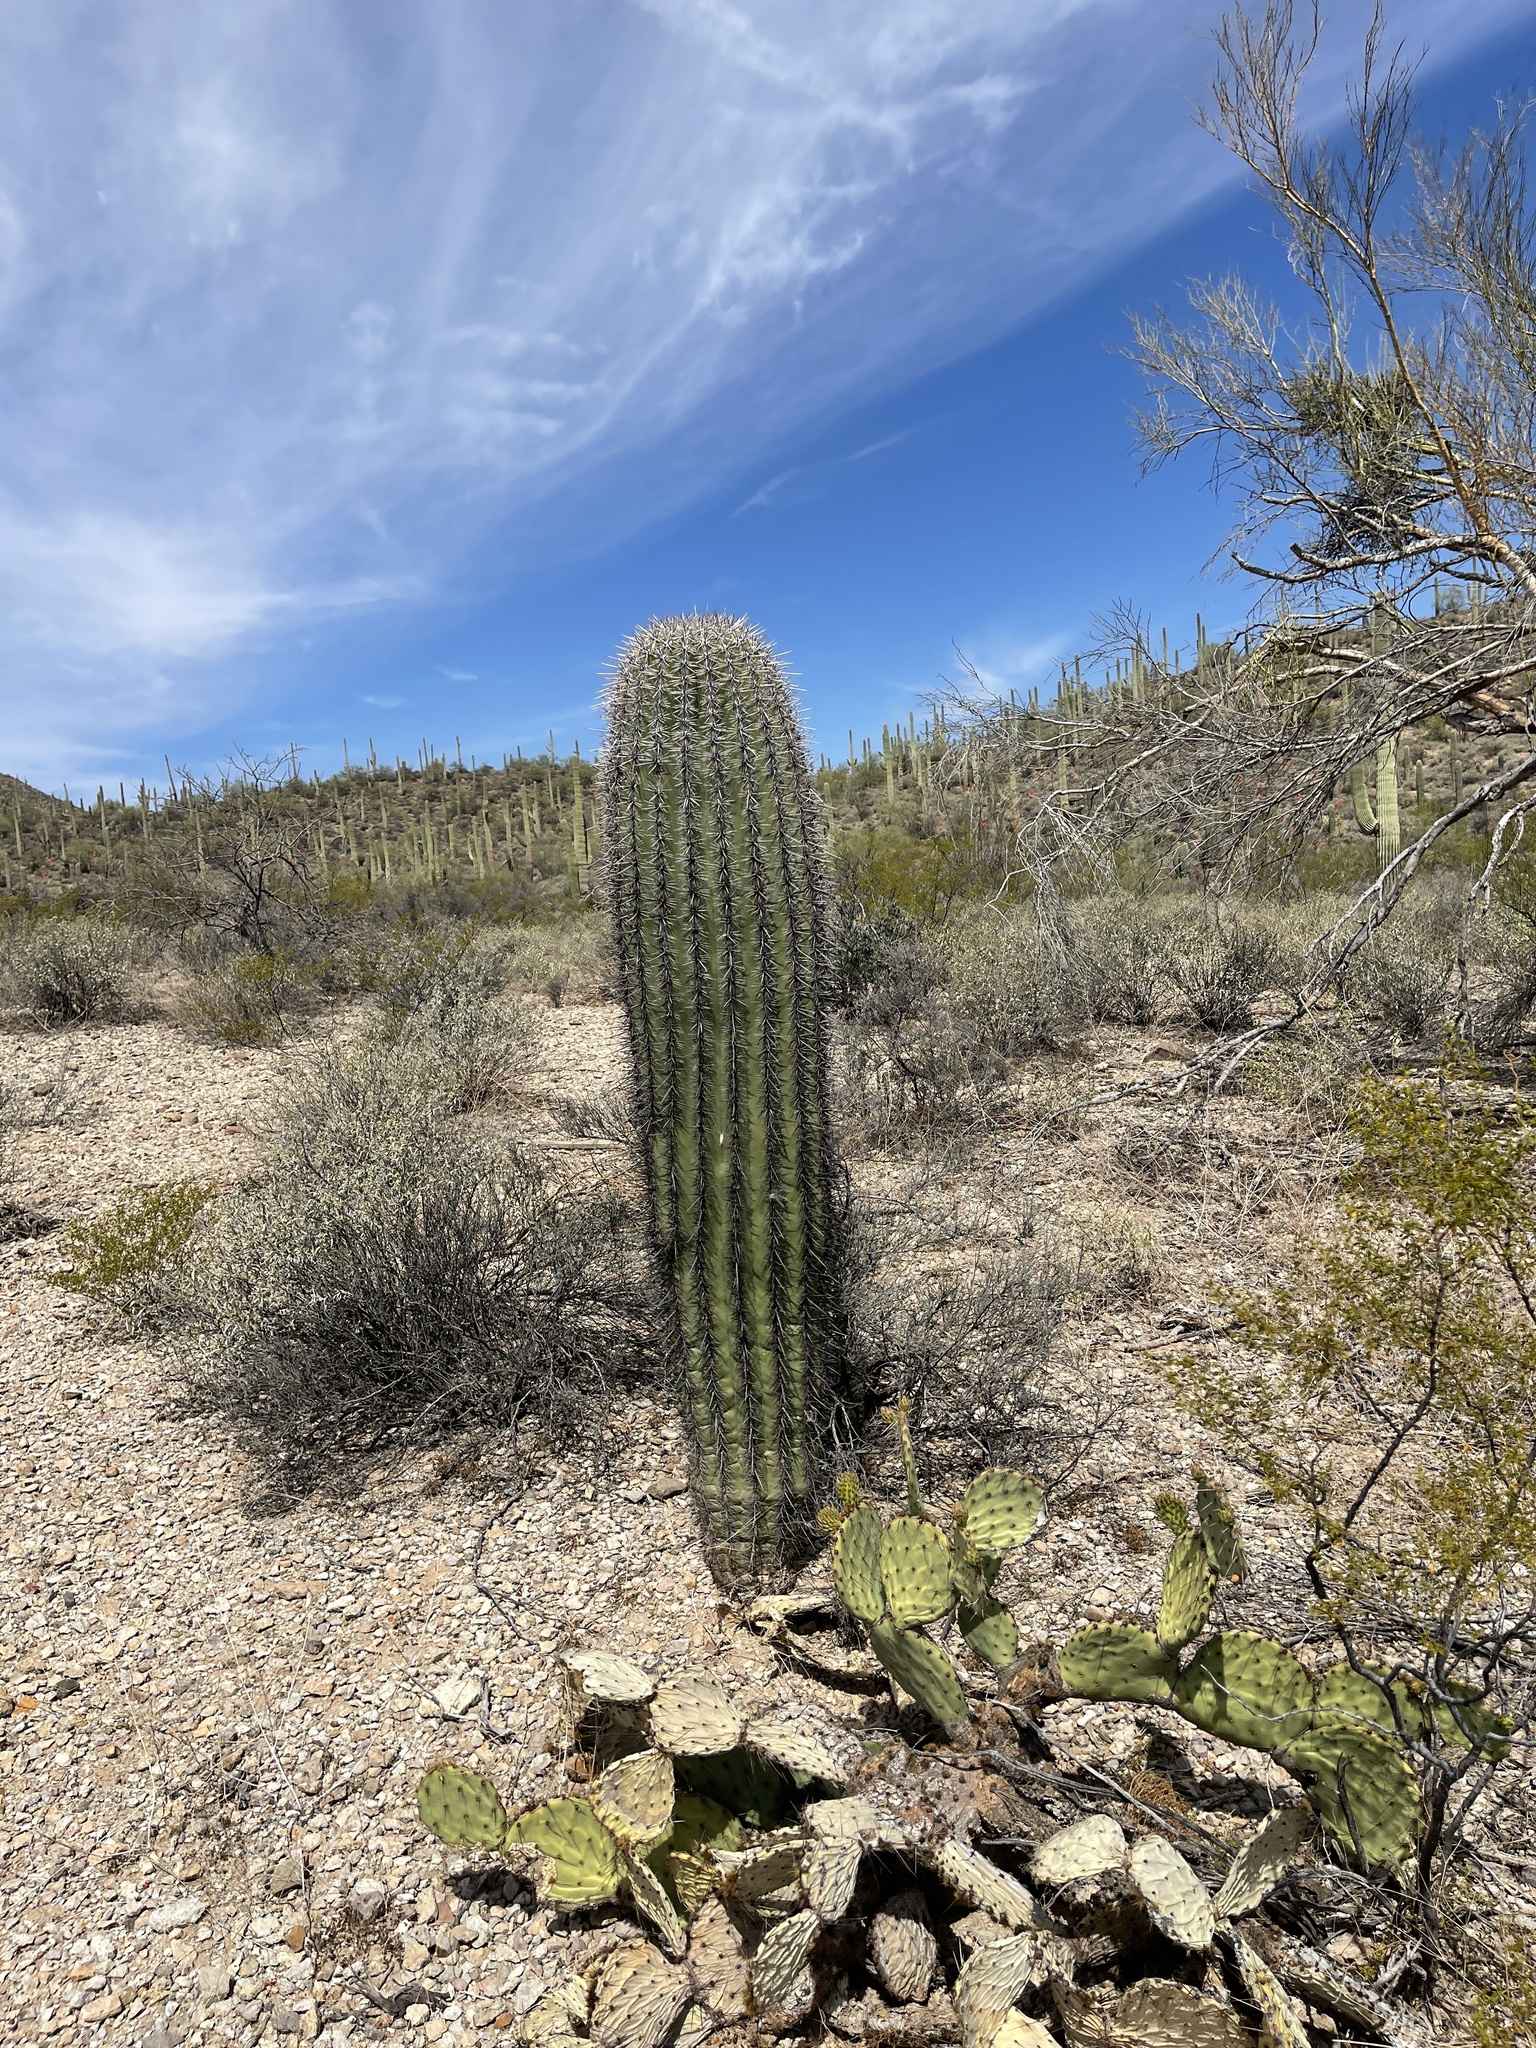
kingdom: Plantae
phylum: Tracheophyta
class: Magnoliopsida
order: Caryophyllales
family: Cactaceae
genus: Carnegiea
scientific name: Carnegiea gigantea
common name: Saguaro
